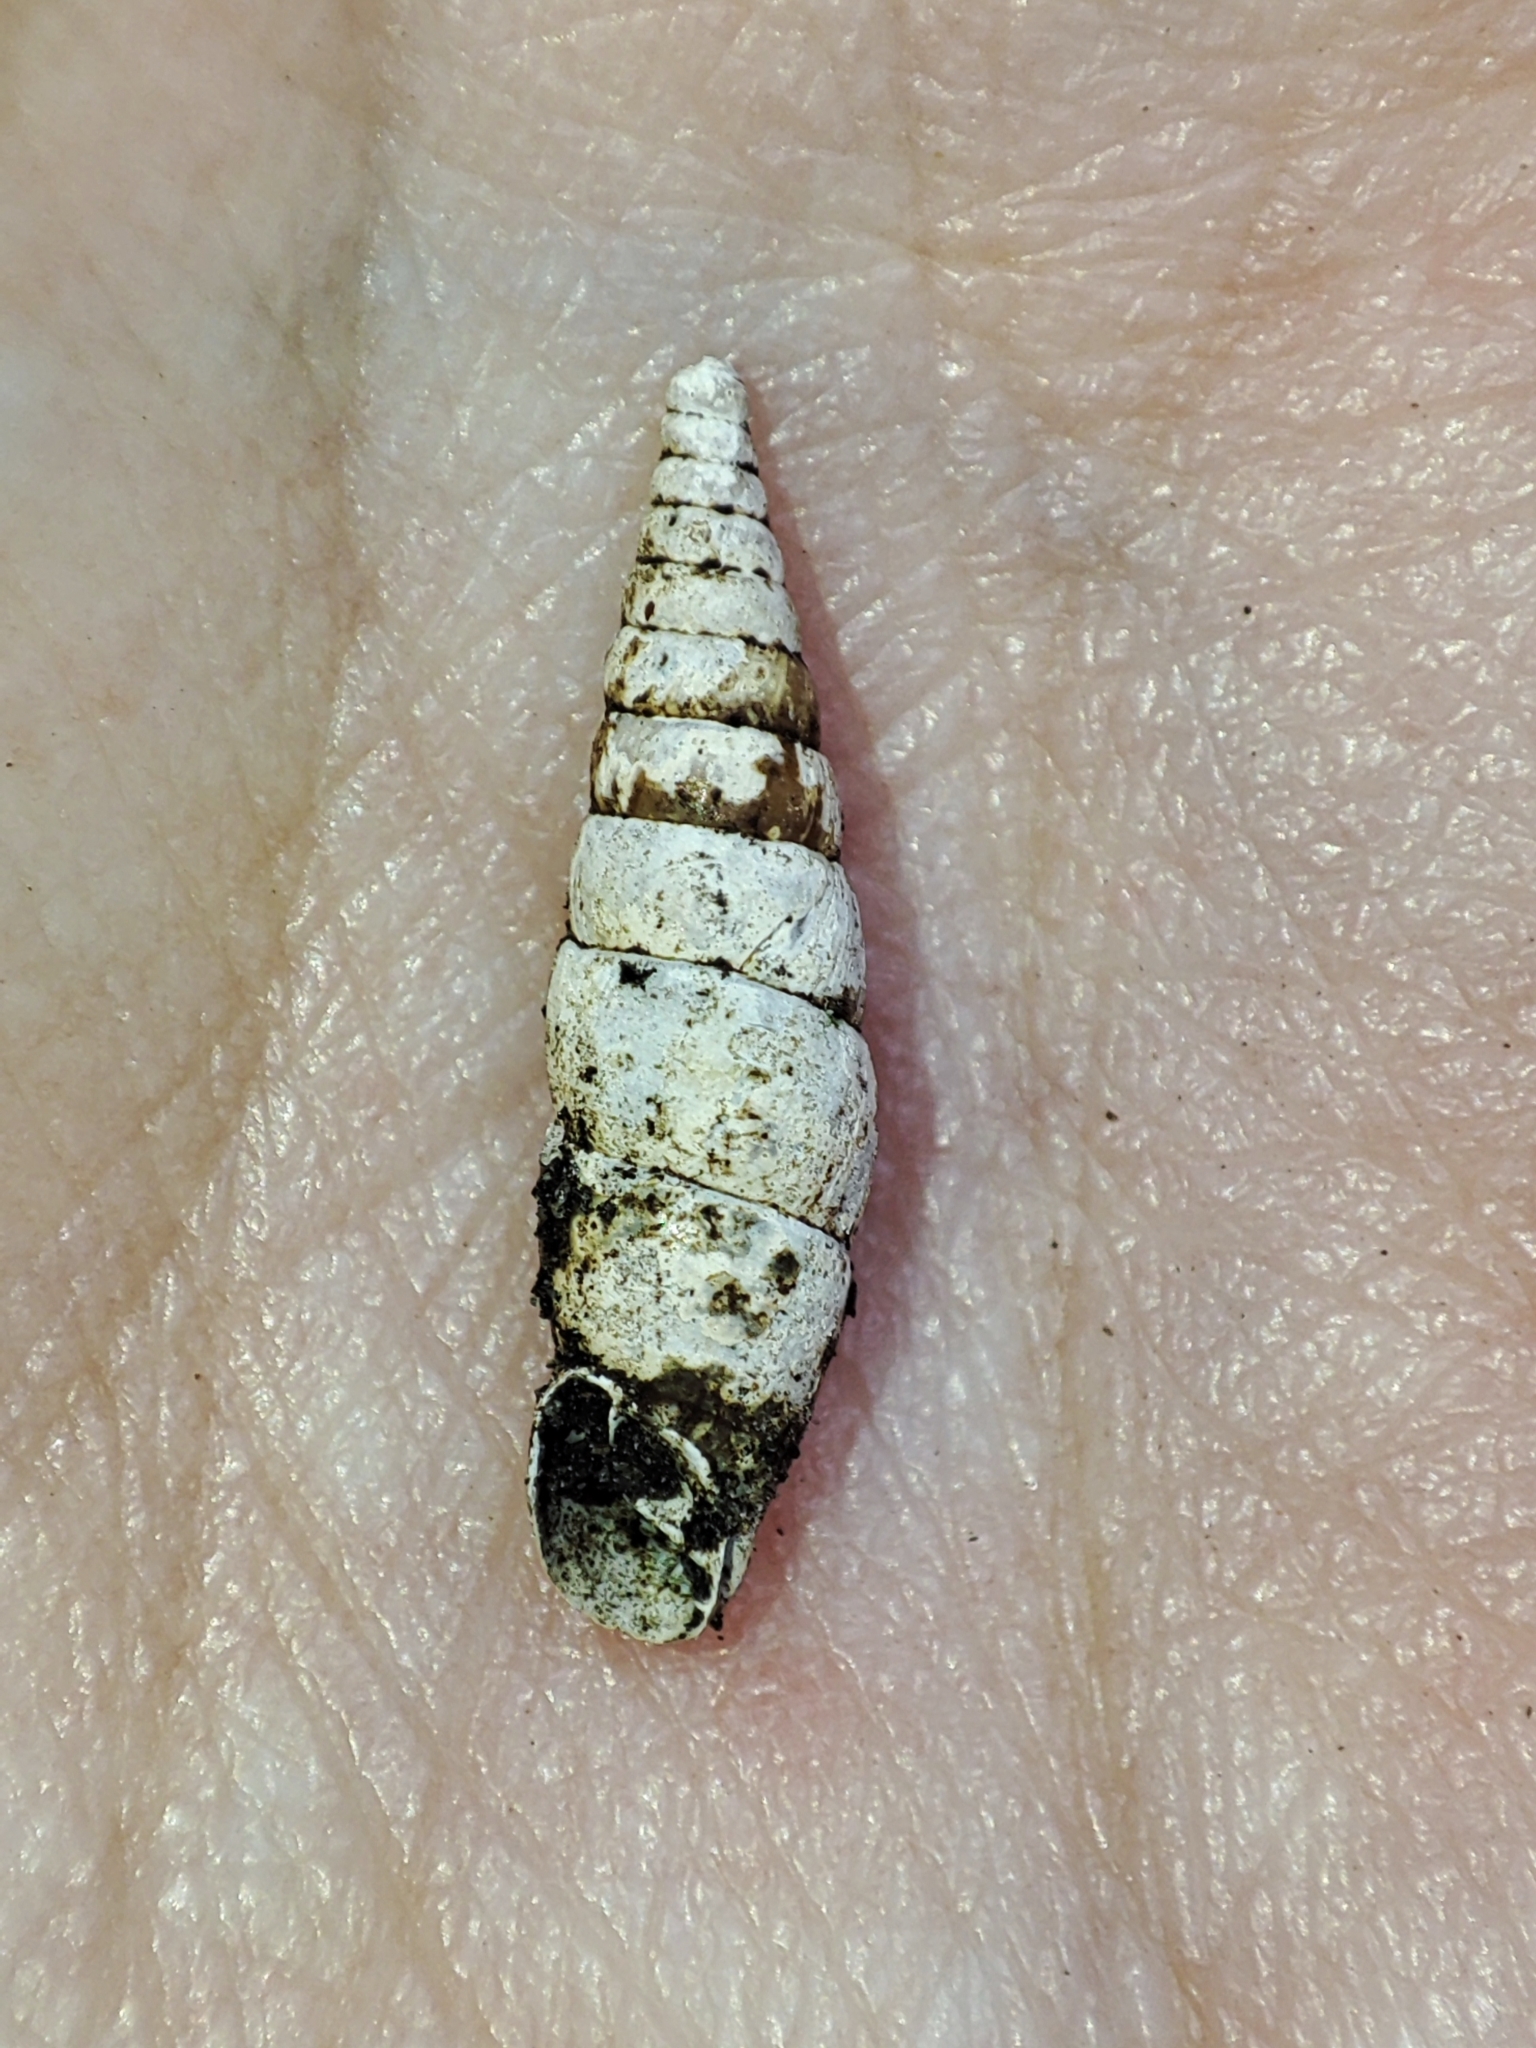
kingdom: Animalia
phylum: Mollusca
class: Gastropoda
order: Stylommatophora
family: Clausiliidae
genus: Cochlodina
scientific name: Cochlodina laminata
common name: Plaited door snail
